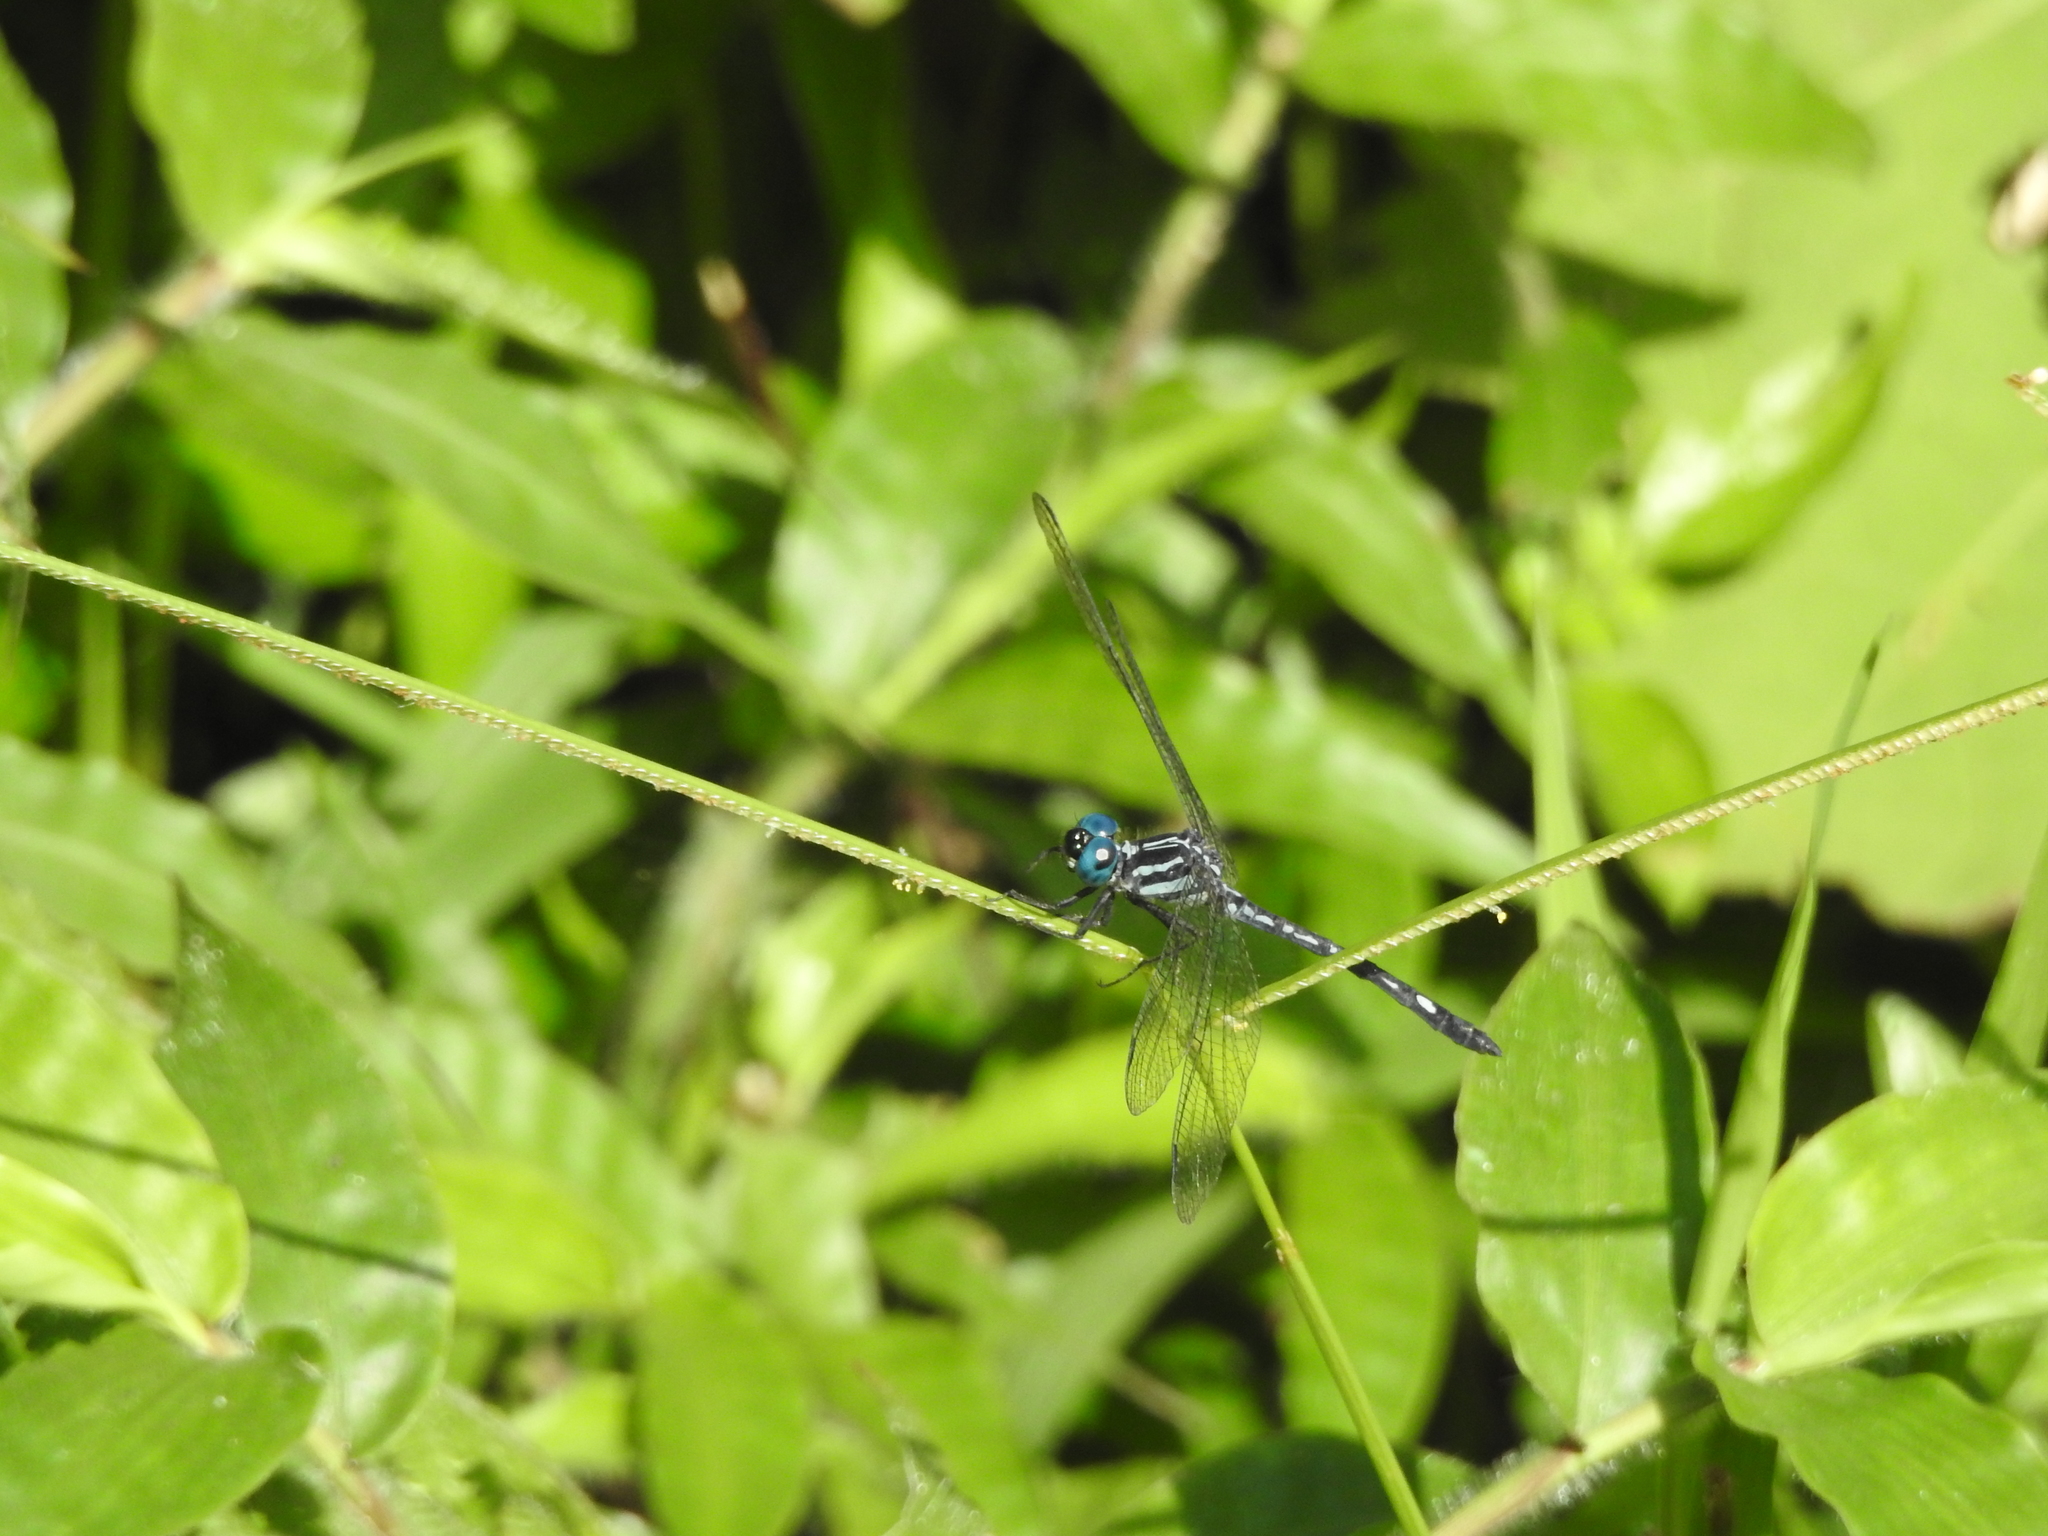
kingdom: Animalia
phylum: Arthropoda
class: Insecta
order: Odonata
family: Libellulidae
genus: Hylaeothemis
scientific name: Hylaeothemis apicalis
